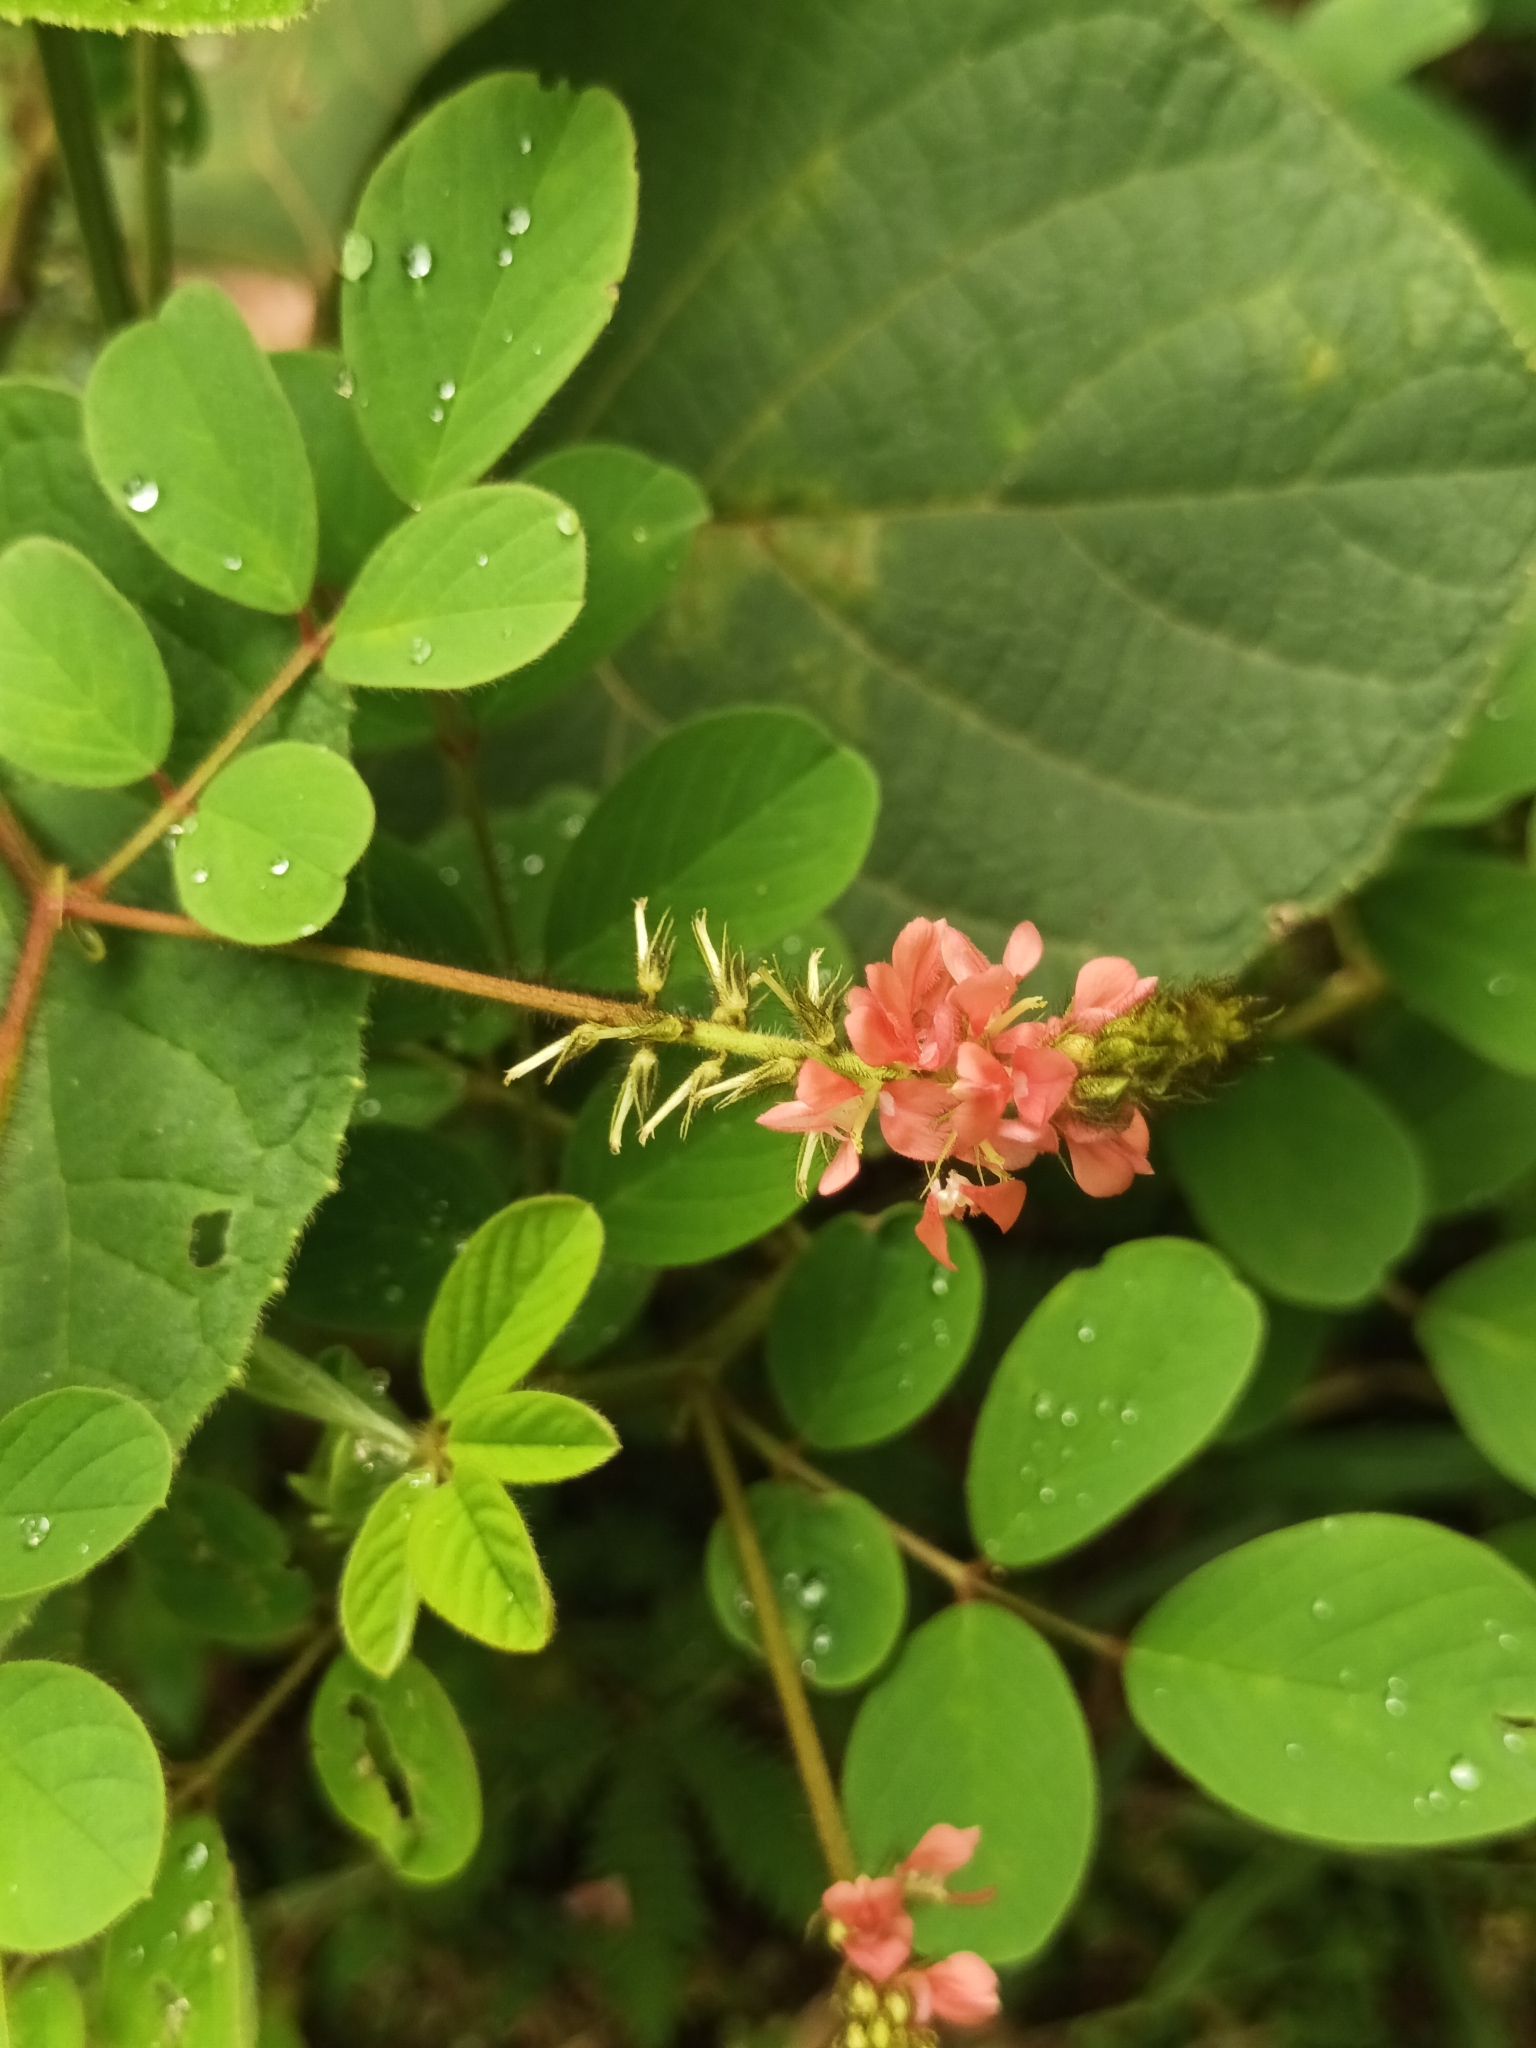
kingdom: Plantae
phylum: Tracheophyta
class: Magnoliopsida
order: Fabales
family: Fabaceae
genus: Indigofera
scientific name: Indigofera hirsuta
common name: Hairy indigo
